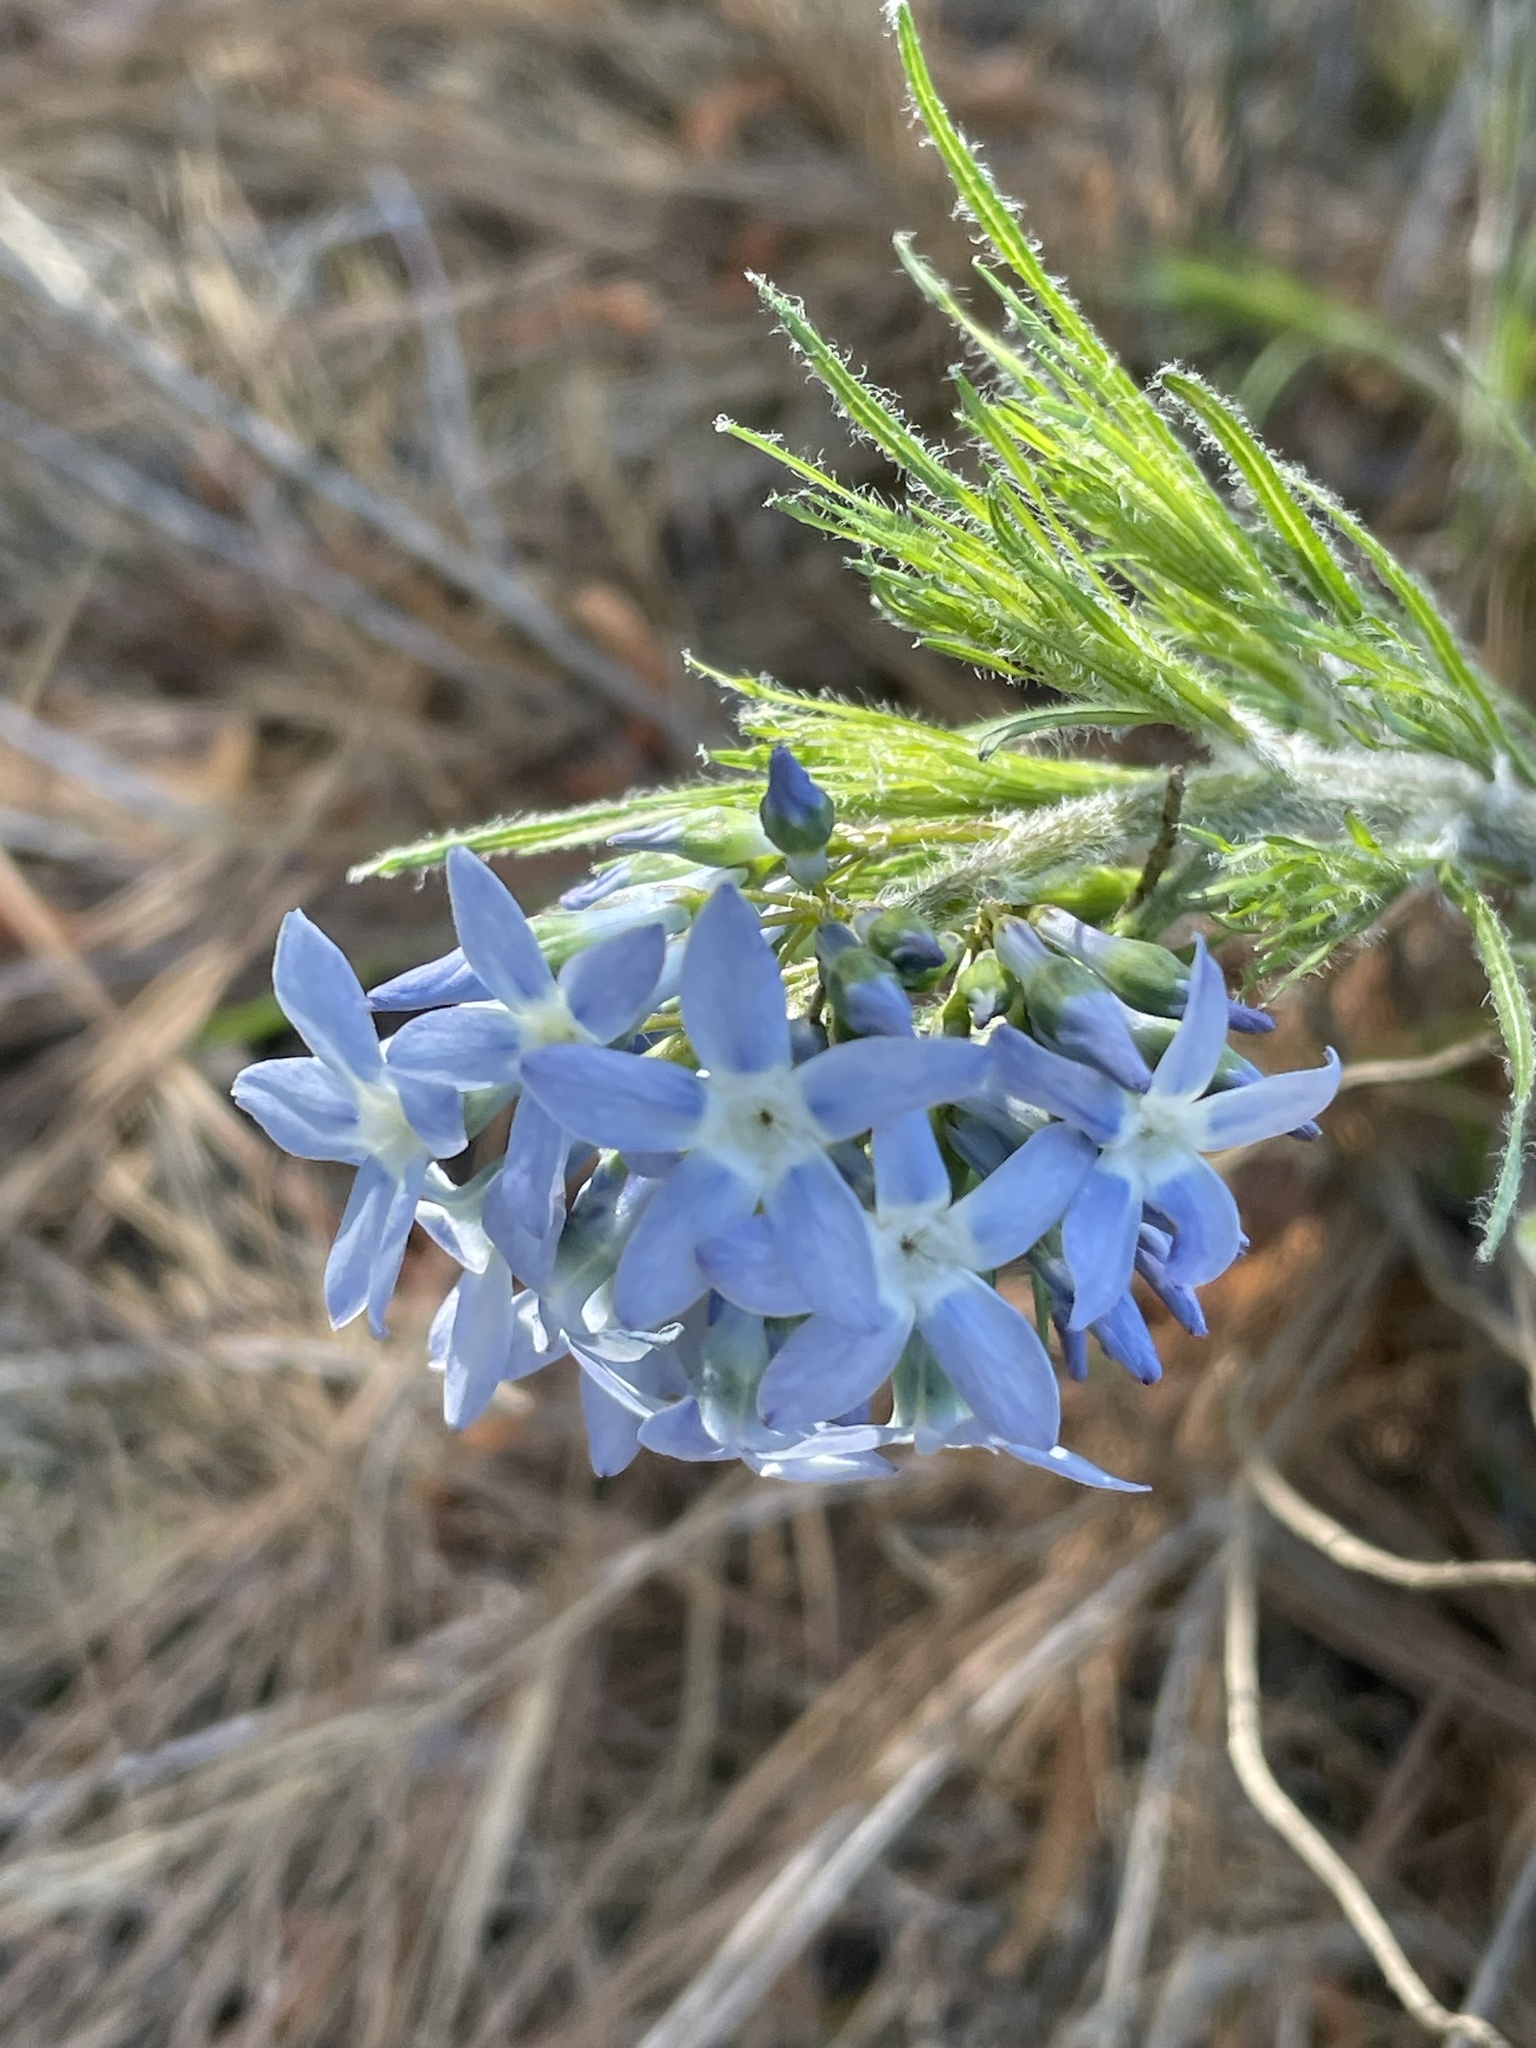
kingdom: Plantae
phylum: Tracheophyta
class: Magnoliopsida
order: Gentianales
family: Apocynaceae
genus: Amsonia
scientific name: Amsonia ciliata
